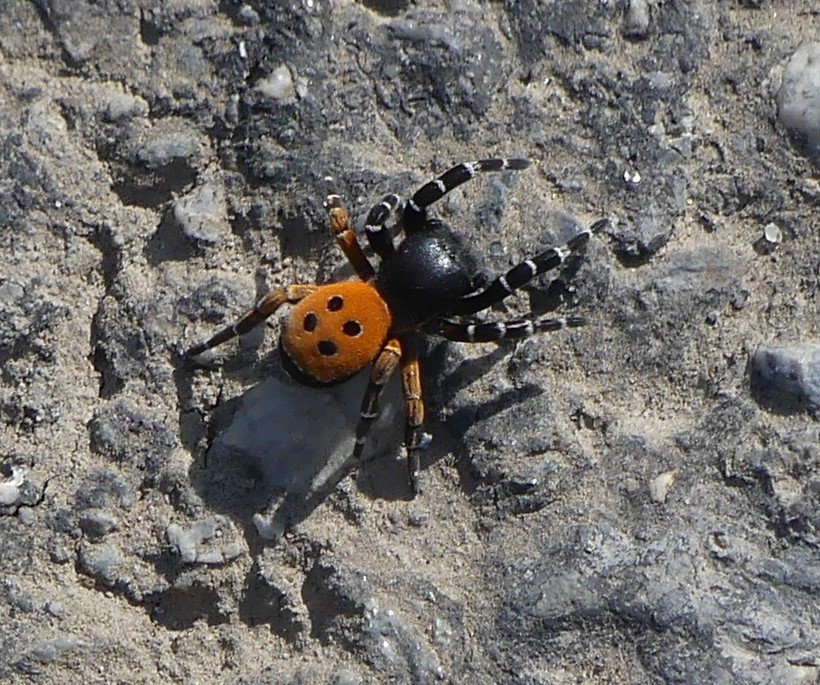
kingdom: Animalia
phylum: Arthropoda
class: Arachnida
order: Araneae
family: Eresidae
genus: Eresus
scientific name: Eresus kollari
